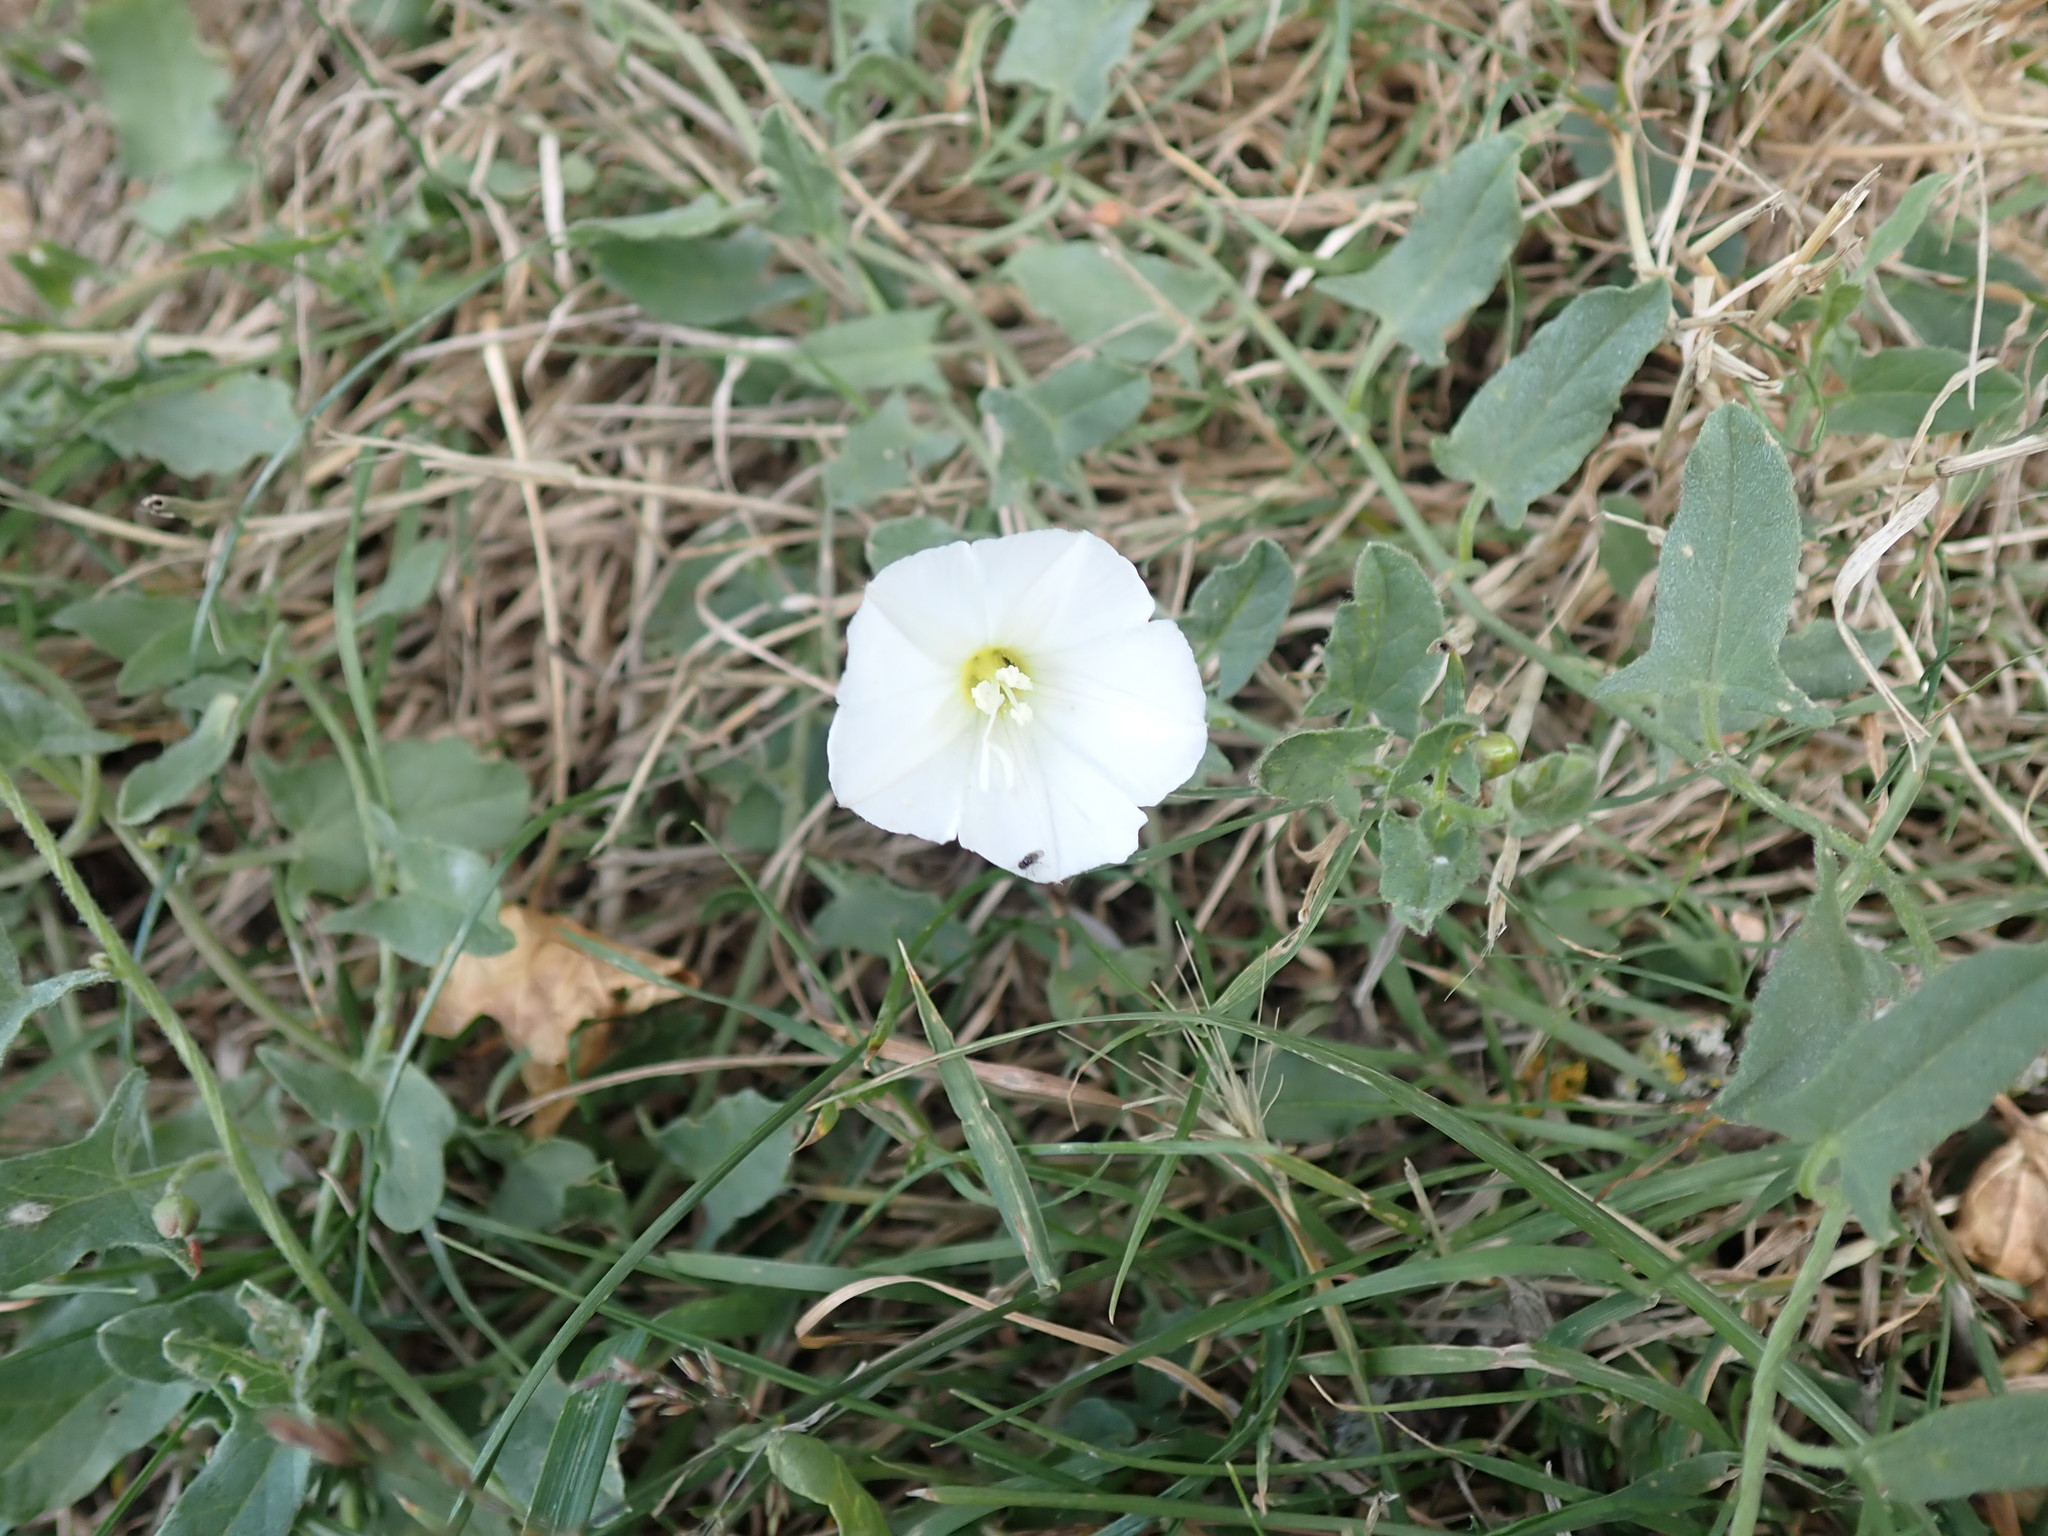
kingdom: Plantae
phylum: Tracheophyta
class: Magnoliopsida
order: Solanales
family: Convolvulaceae
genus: Convolvulus
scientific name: Convolvulus arvensis
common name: Field bindweed
